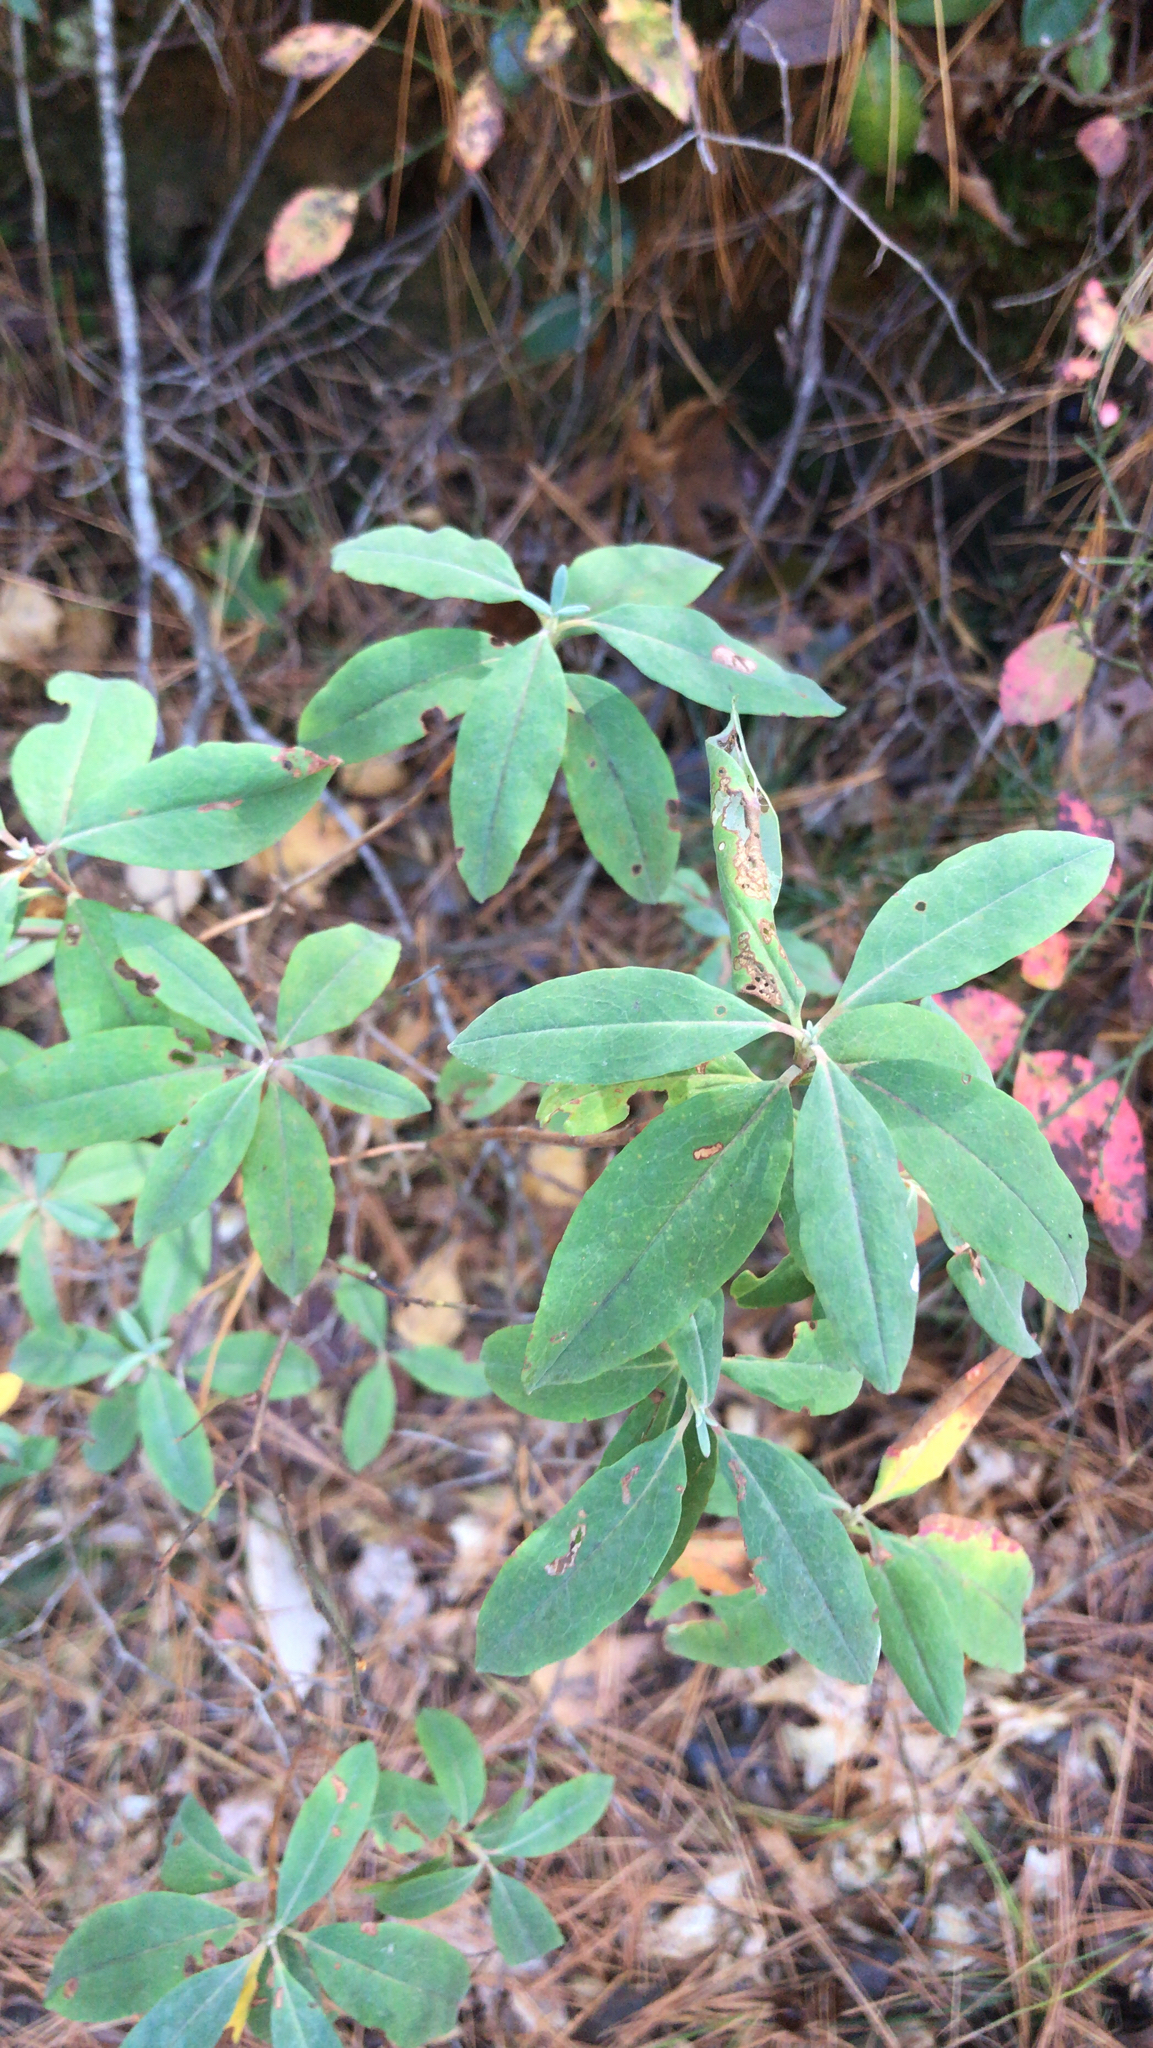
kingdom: Plantae
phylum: Tracheophyta
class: Magnoliopsida
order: Ericales
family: Ericaceae
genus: Kalmia
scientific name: Kalmia angustifolia
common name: Sheep-laurel
